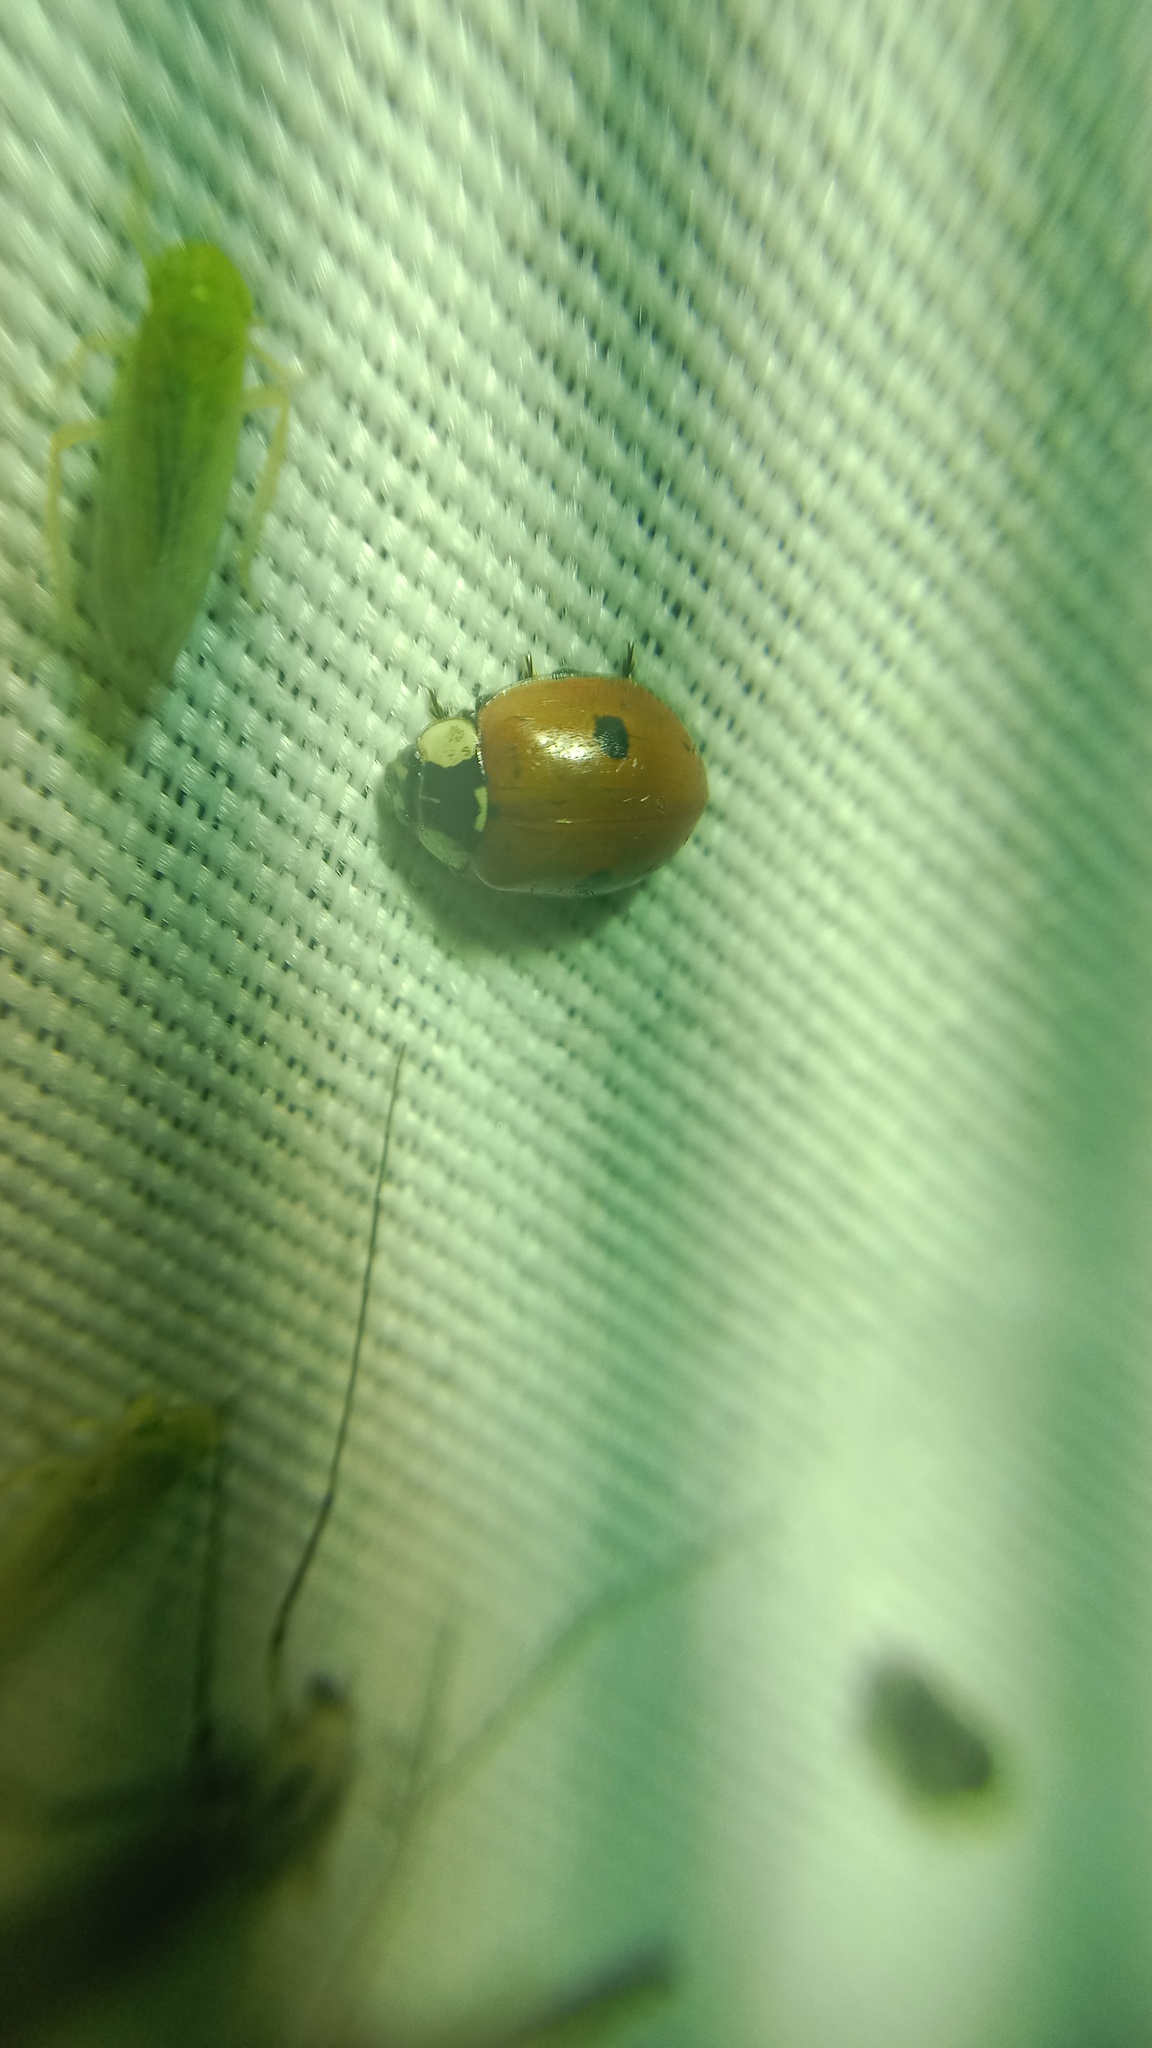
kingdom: Animalia
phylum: Arthropoda
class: Insecta
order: Coleoptera
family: Coccinellidae
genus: Adalia
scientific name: Adalia bipunctata
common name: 2-spot ladybird
